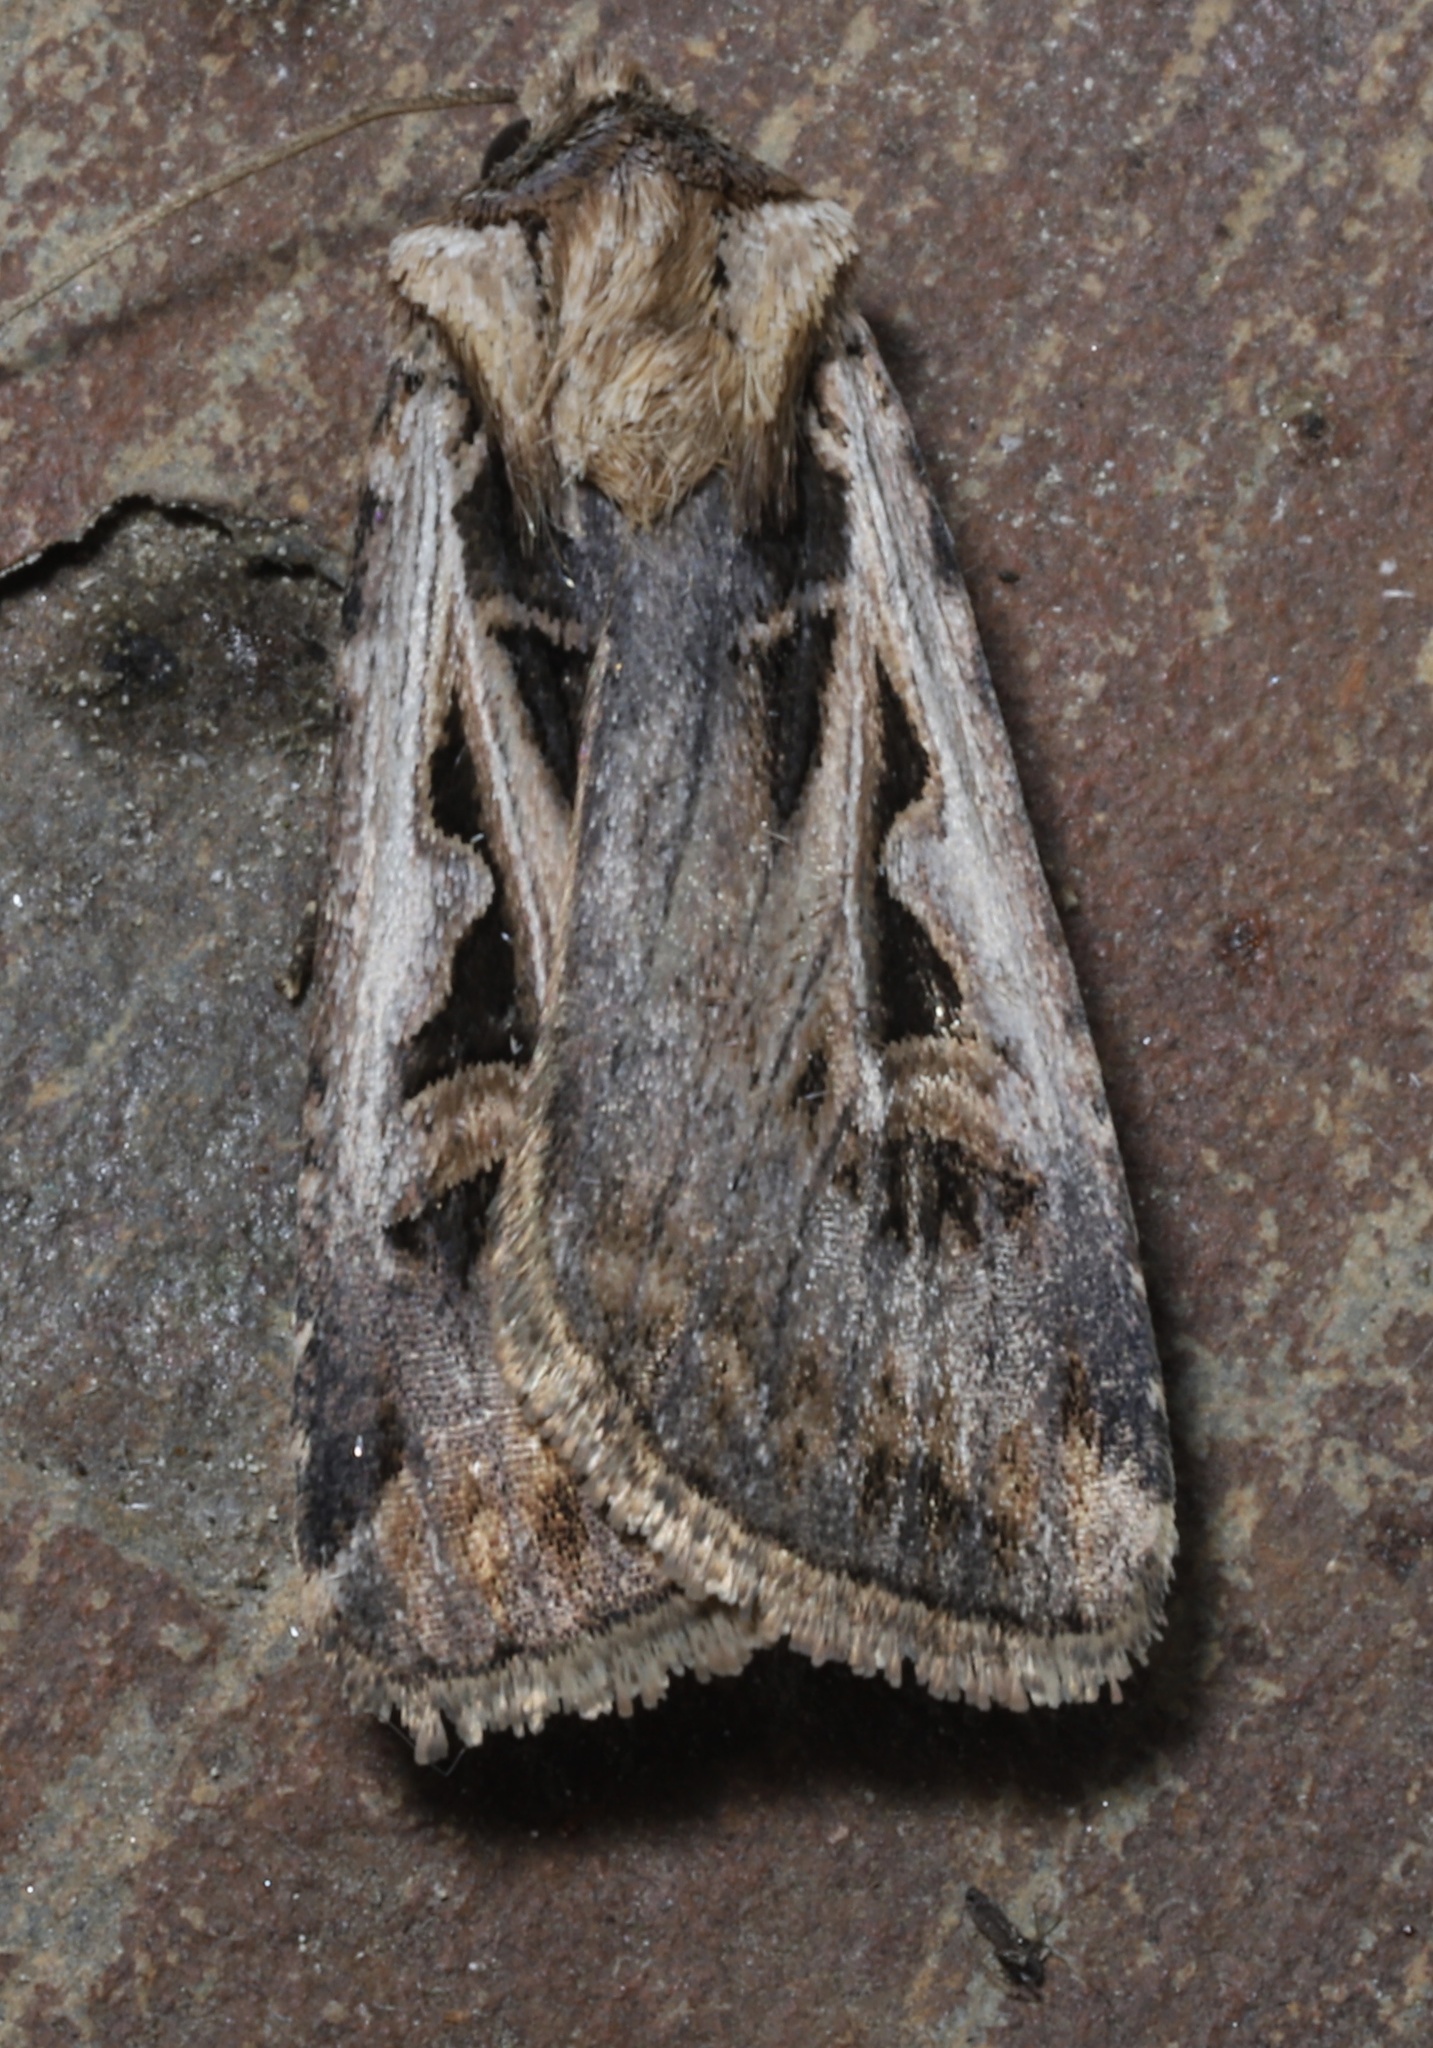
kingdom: Animalia
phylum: Arthropoda
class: Insecta
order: Lepidoptera
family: Noctuidae
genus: Feltia
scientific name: Feltia
